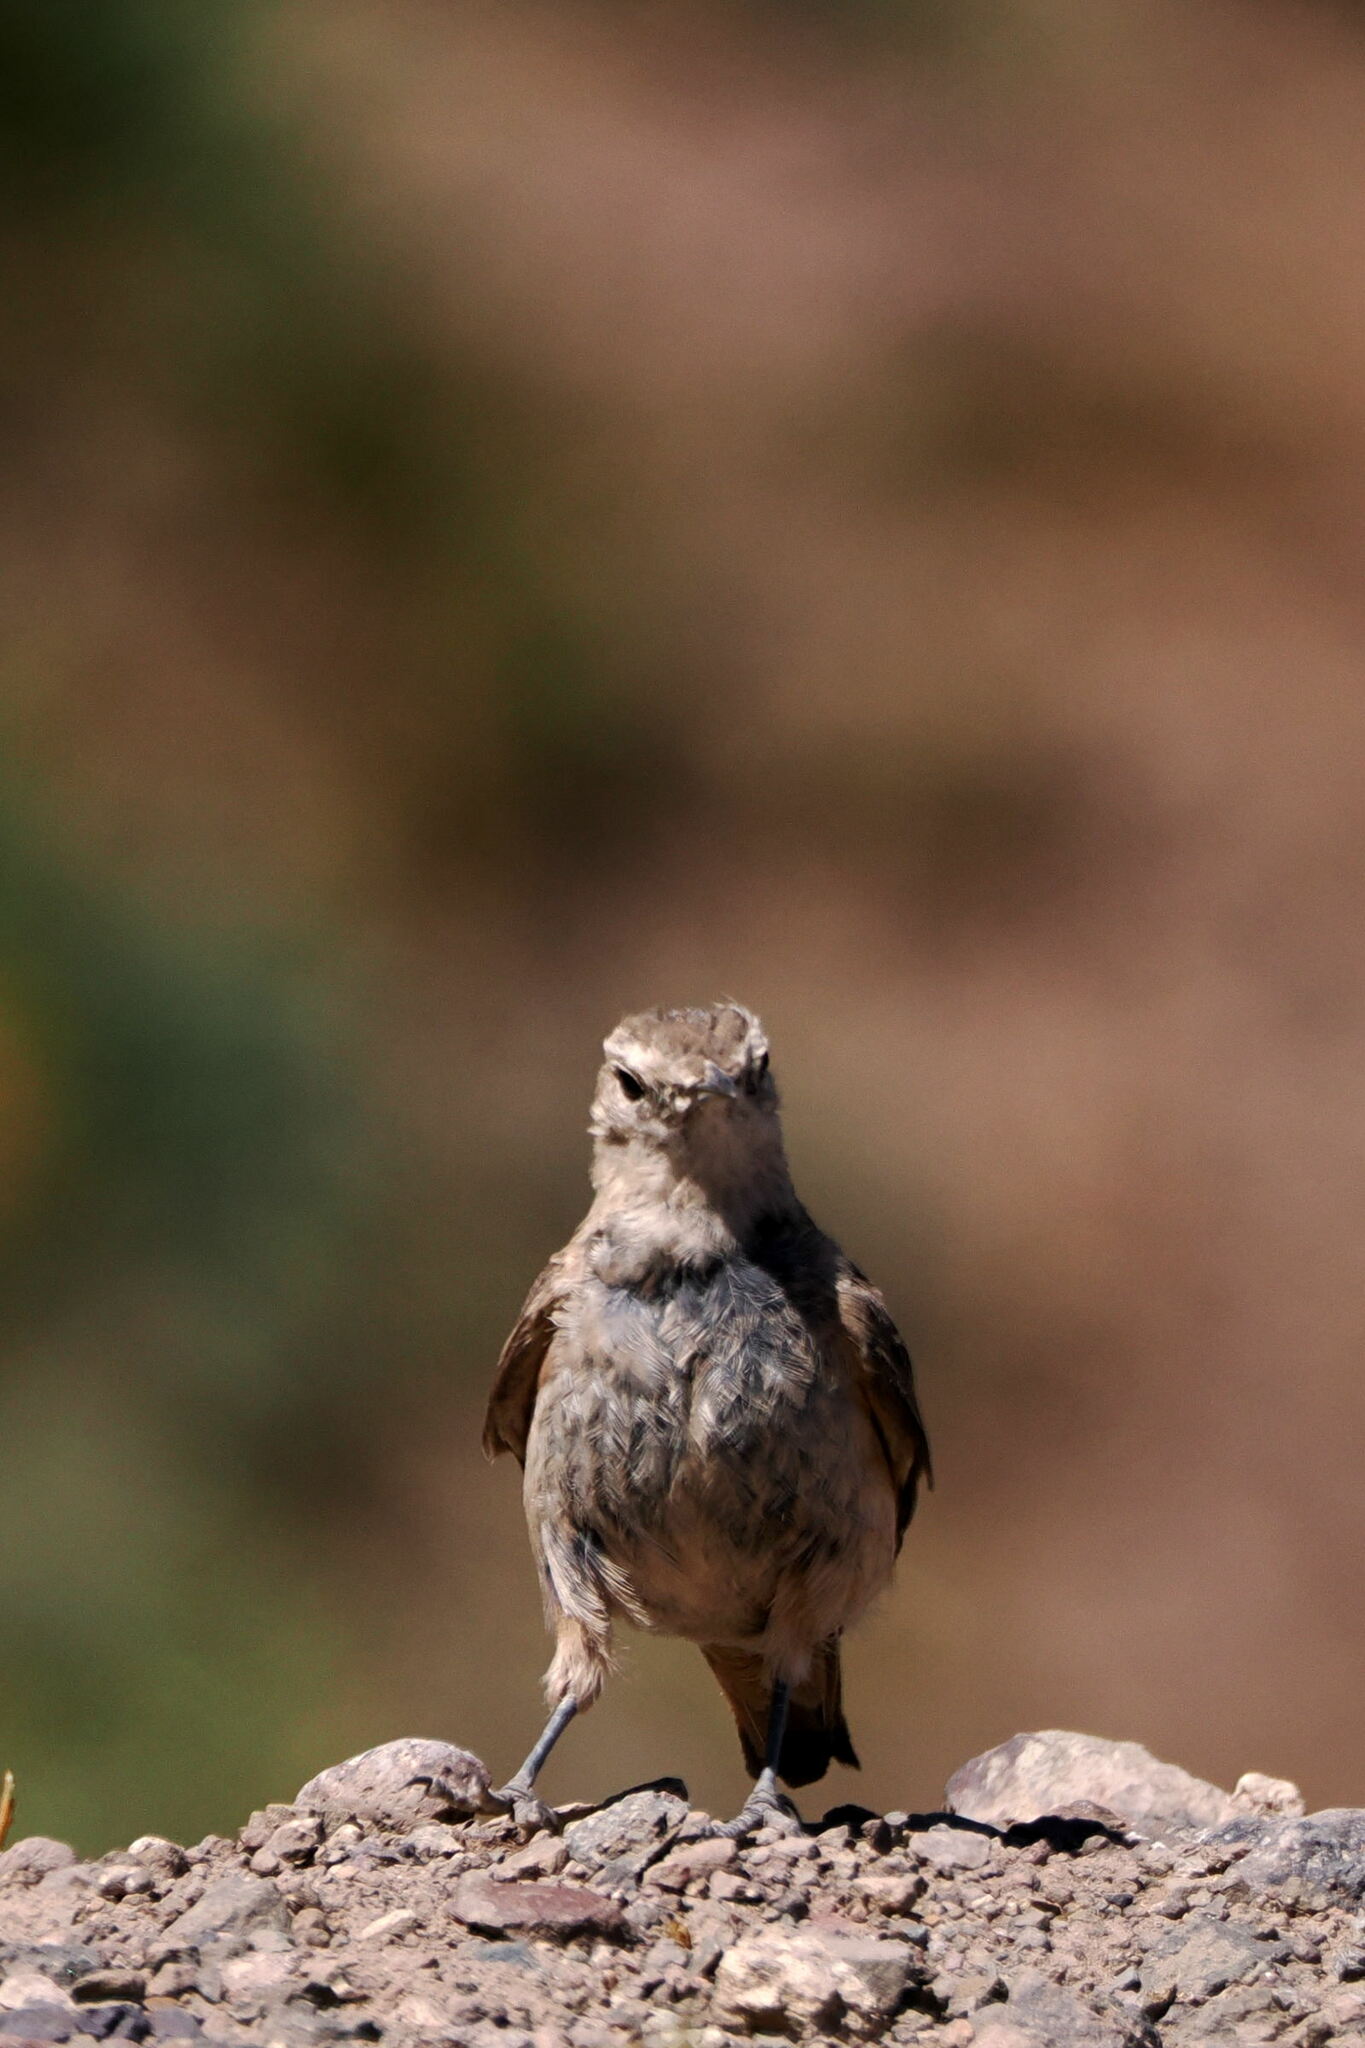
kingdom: Animalia
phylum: Chordata
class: Aves
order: Passeriformes
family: Furnariidae
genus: Geositta
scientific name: Geositta rufipennis
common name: Rufous-banded miner
